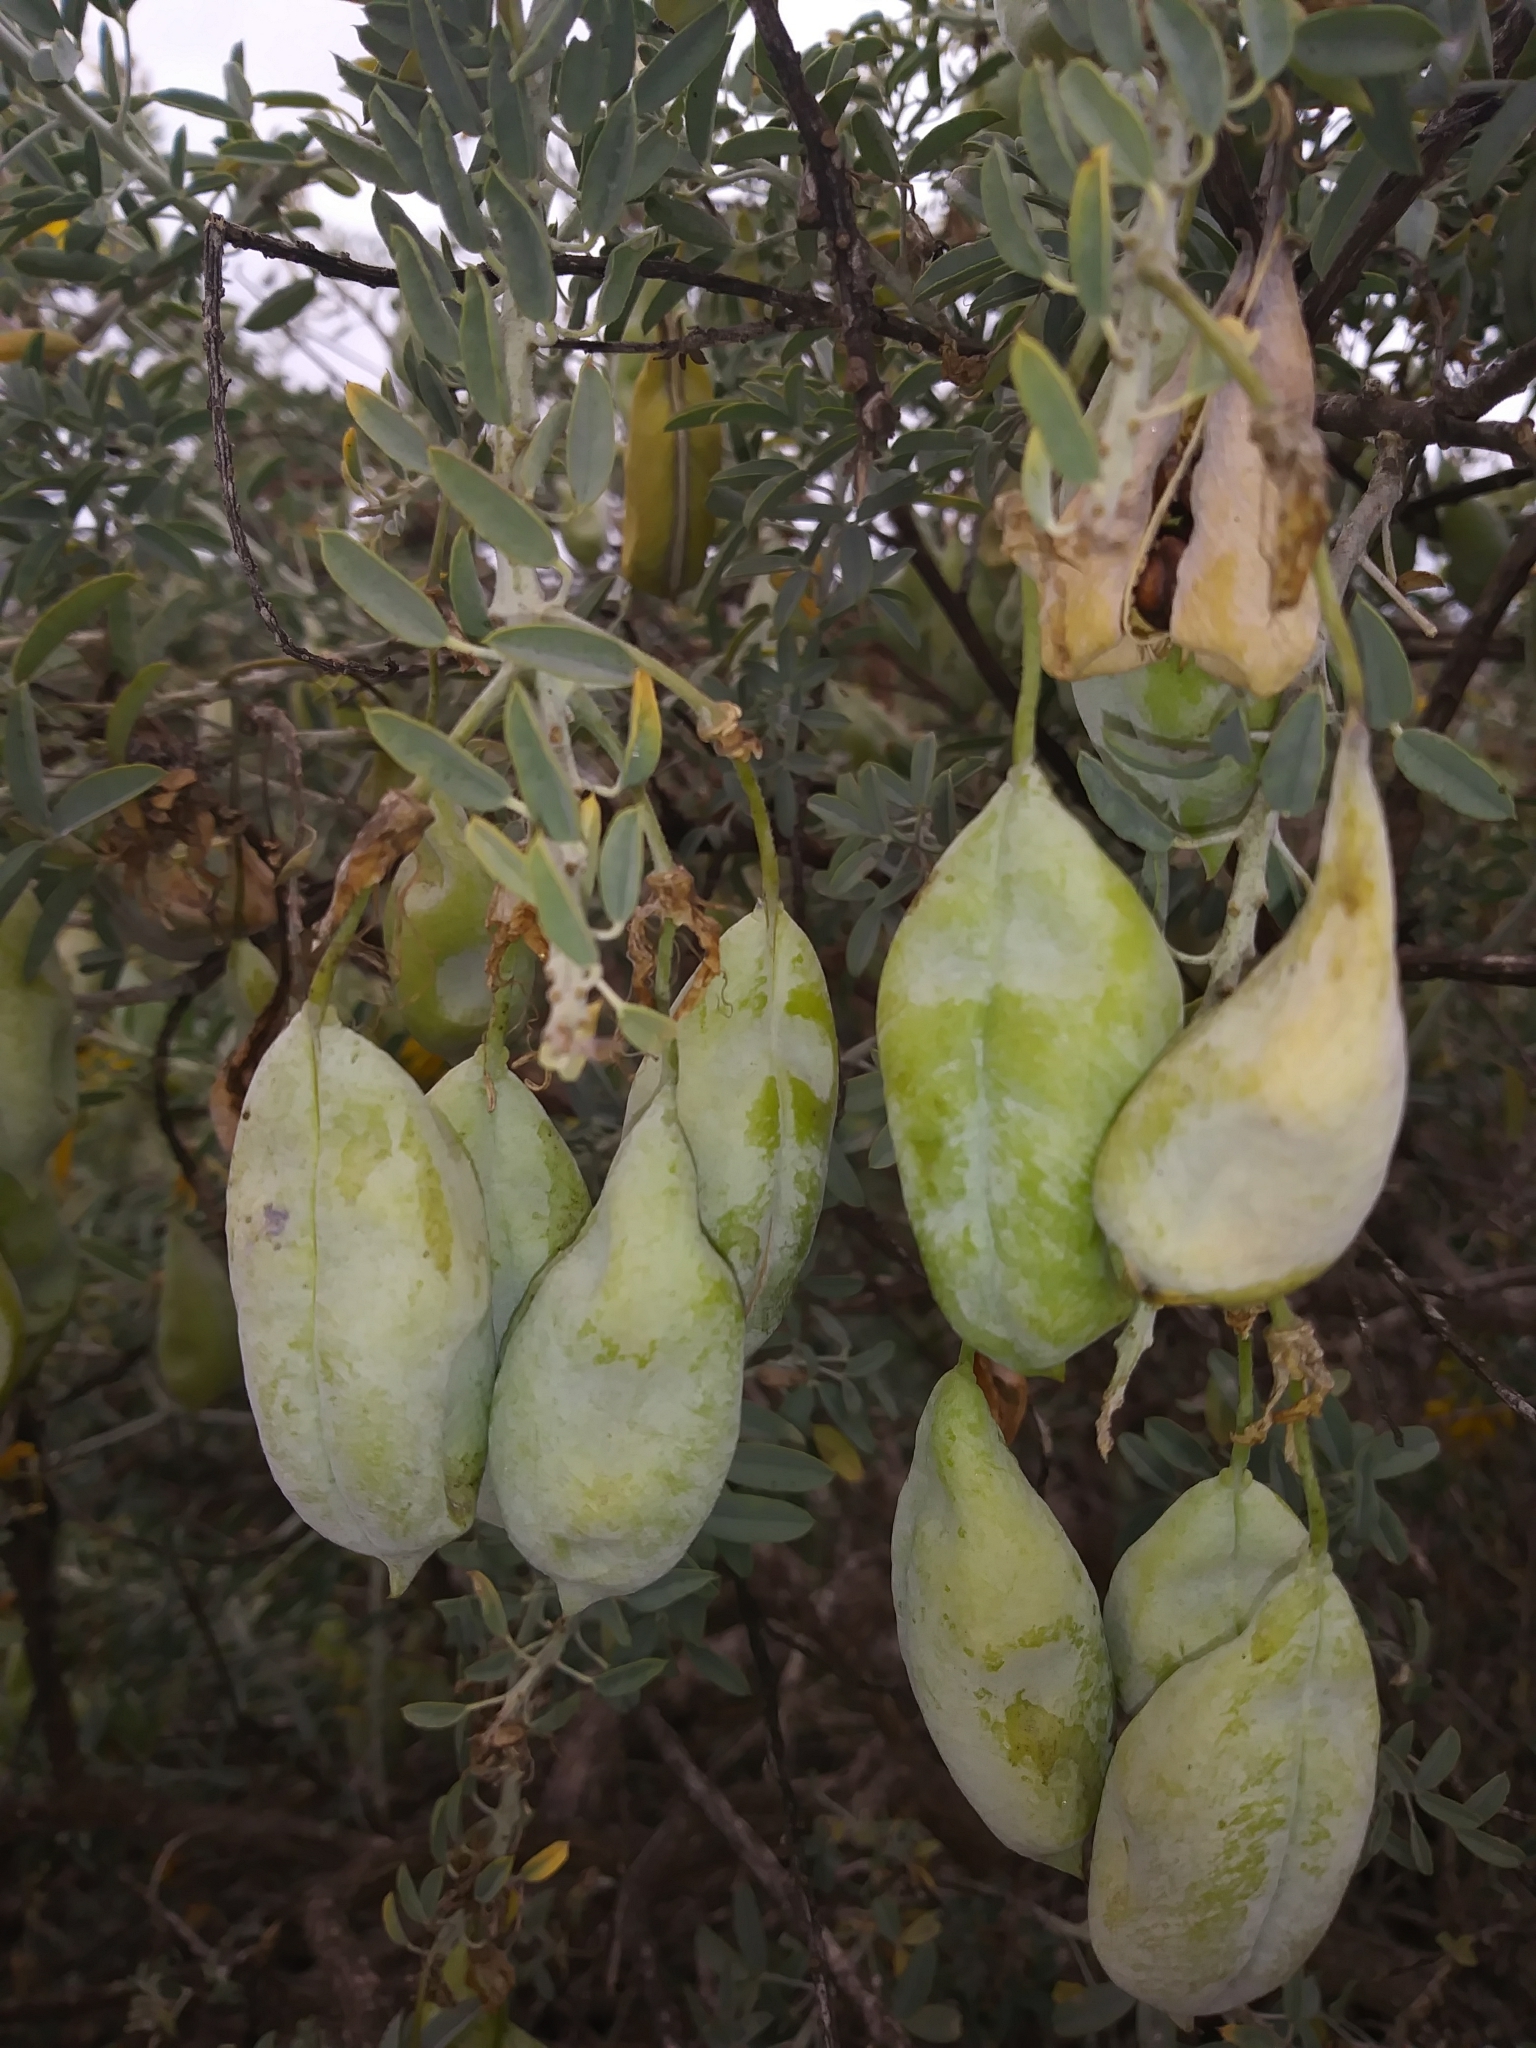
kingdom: Plantae
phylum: Tracheophyta
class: Magnoliopsida
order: Brassicales
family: Cleomaceae
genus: Cleomella
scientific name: Cleomella arborea
